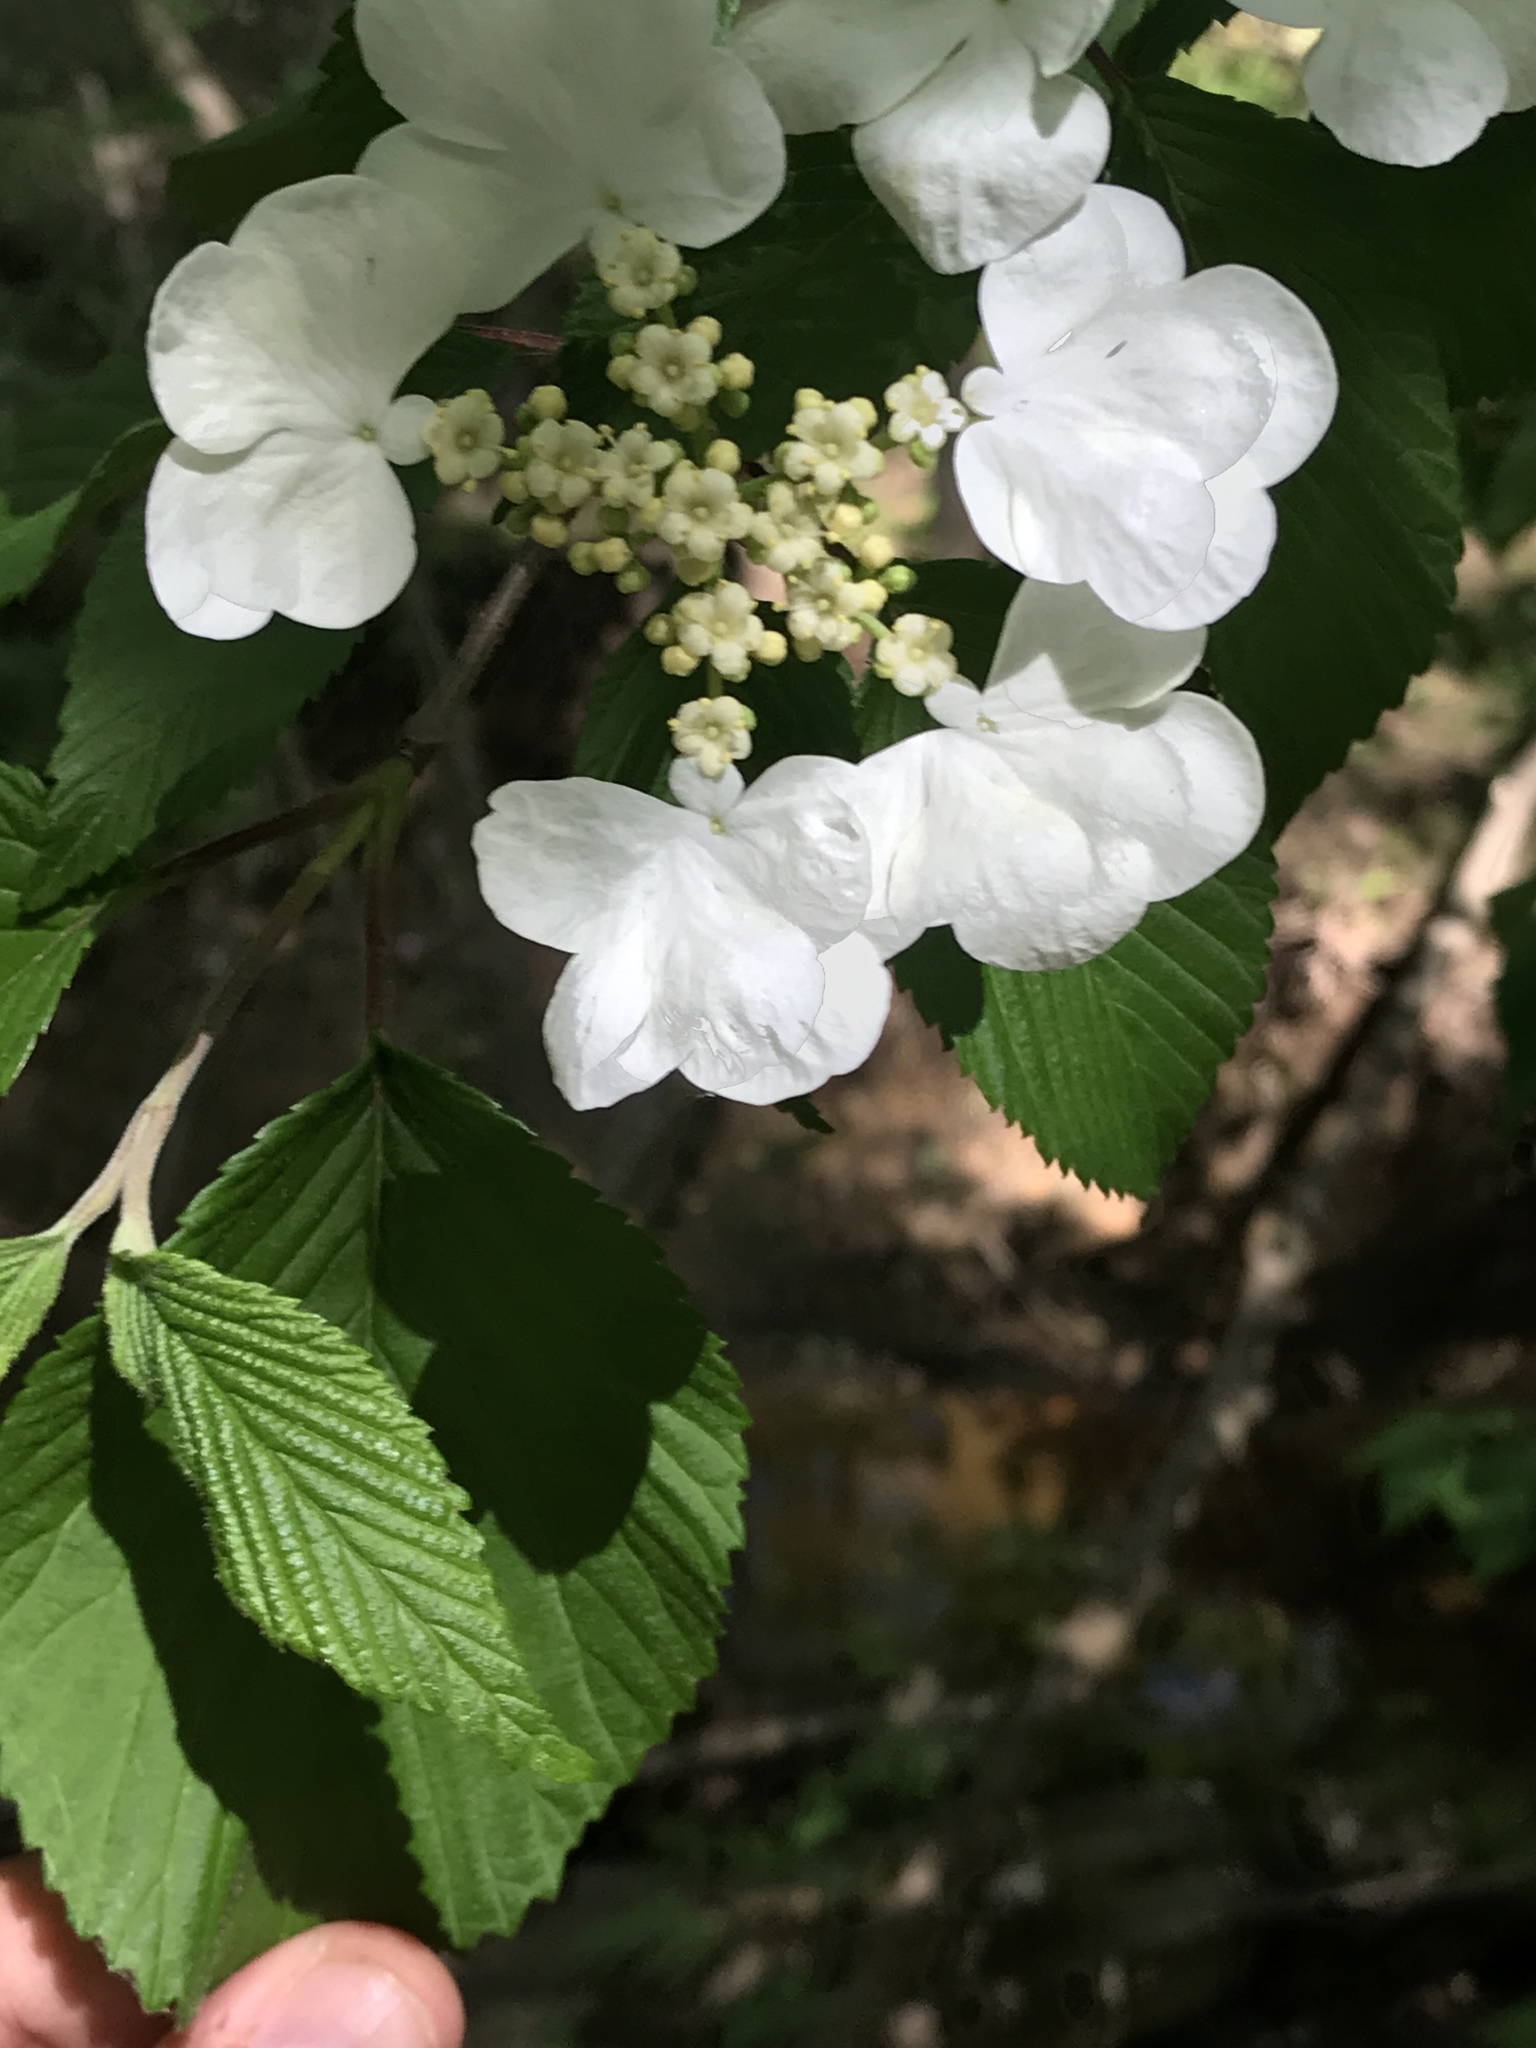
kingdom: Plantae
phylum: Tracheophyta
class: Magnoliopsida
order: Dipsacales
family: Viburnaceae
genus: Viburnum
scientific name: Viburnum plicatum
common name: Japanese snowball
